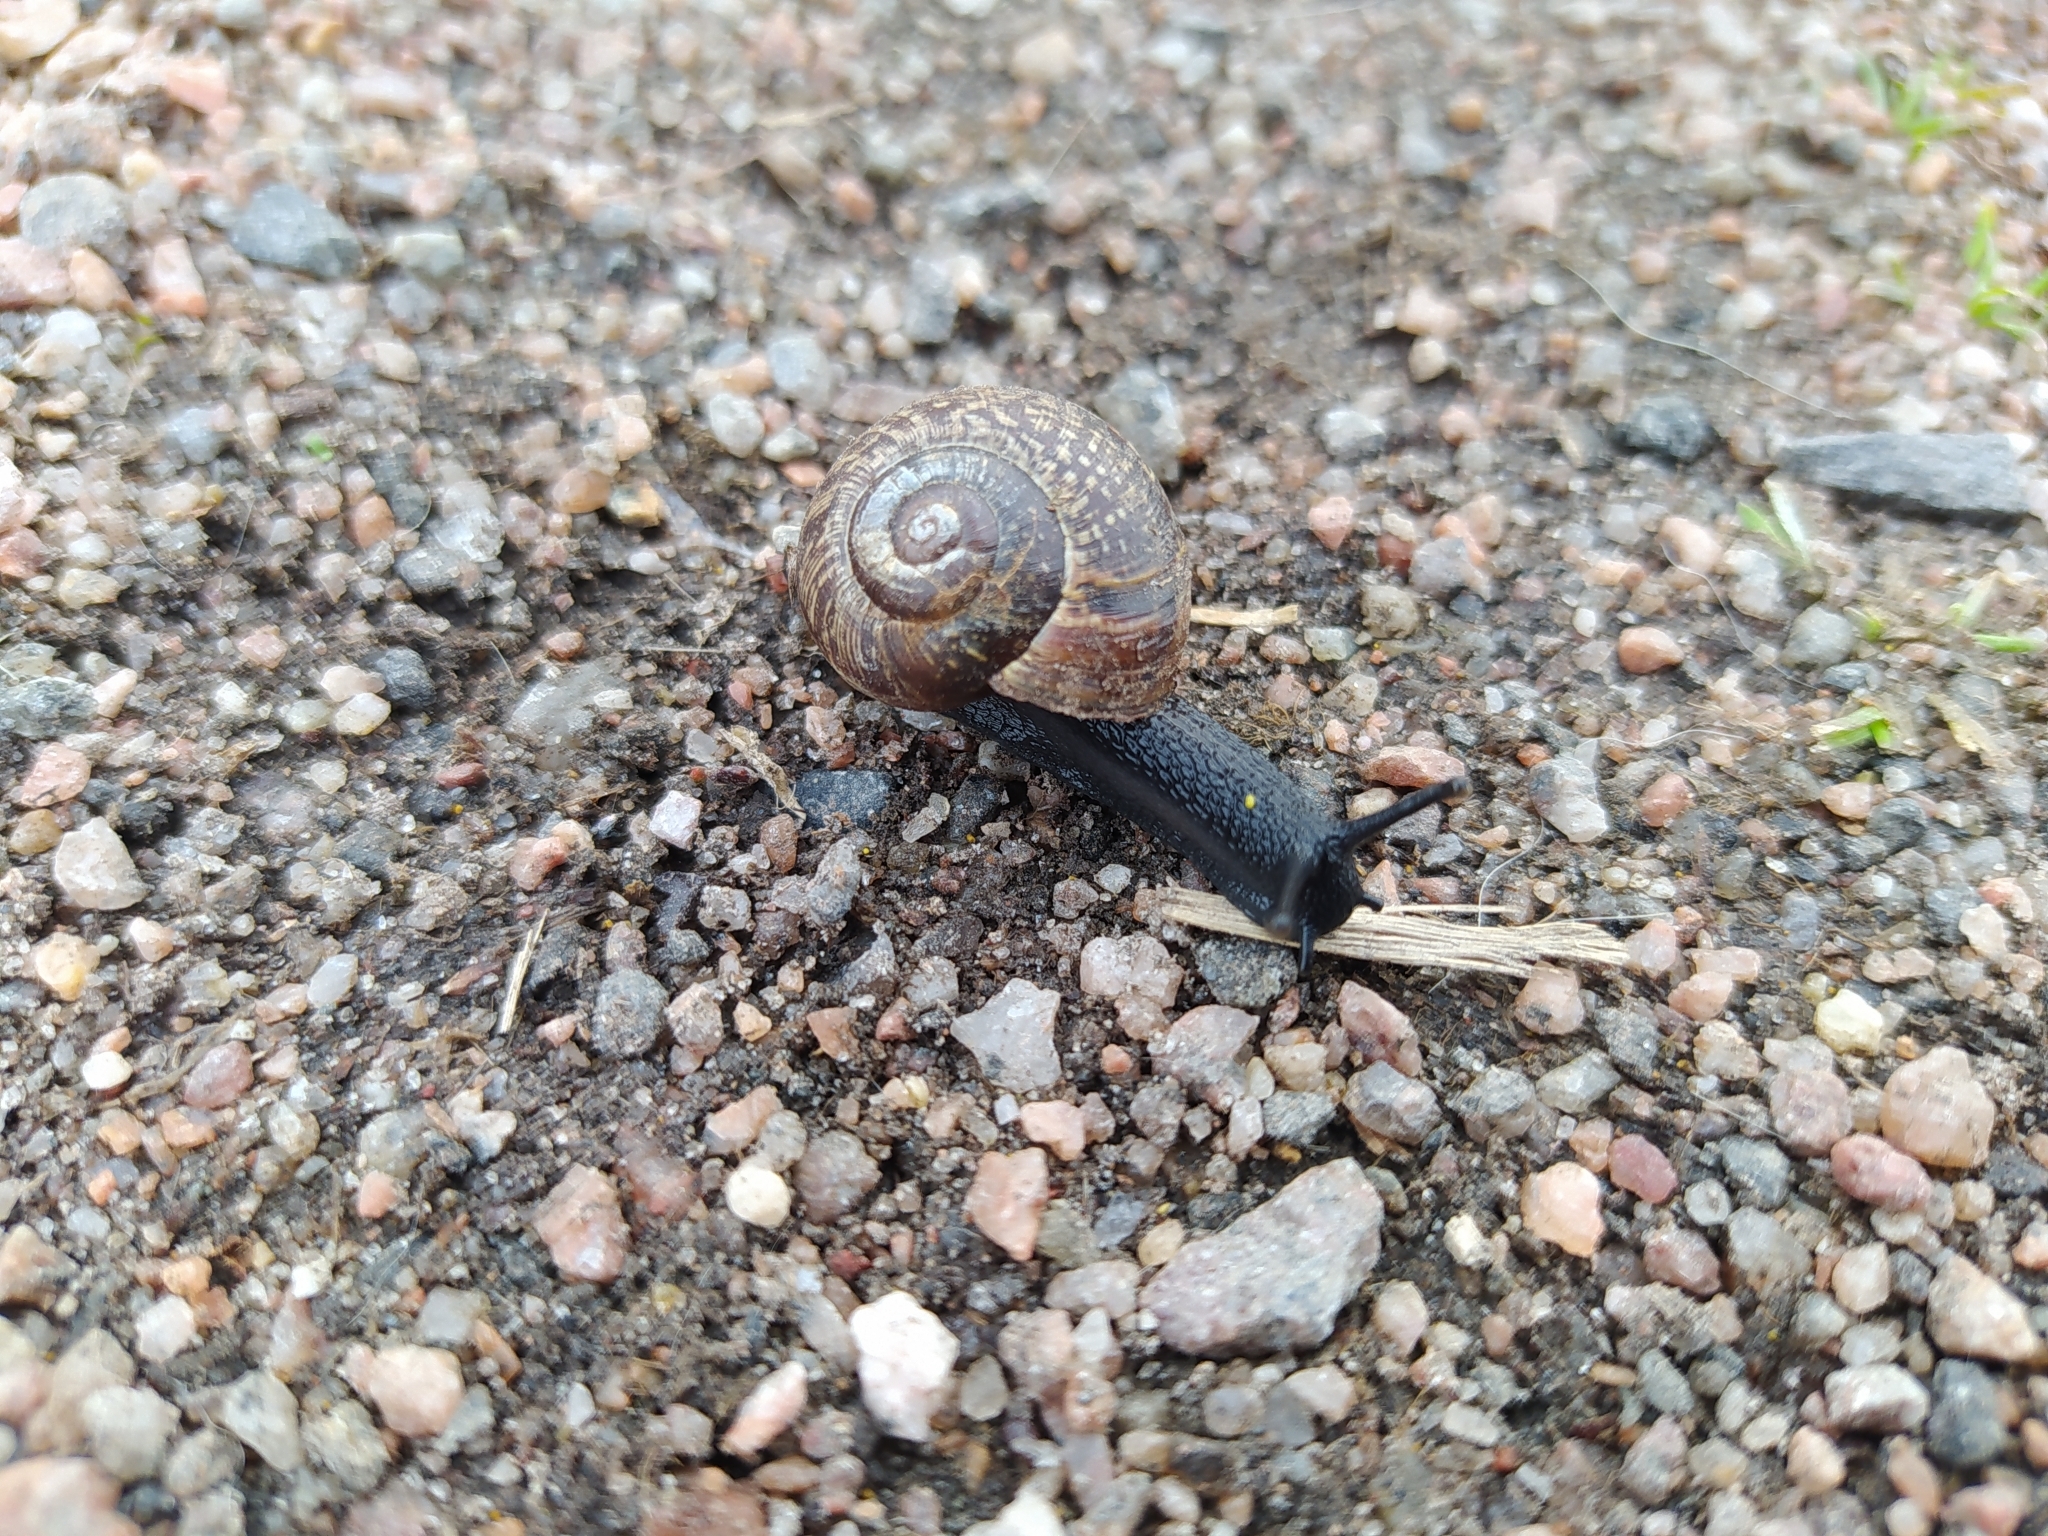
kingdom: Animalia
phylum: Mollusca
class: Gastropoda
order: Stylommatophora
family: Helicidae
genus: Arianta
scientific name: Arianta arbustorum
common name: Copse snail
